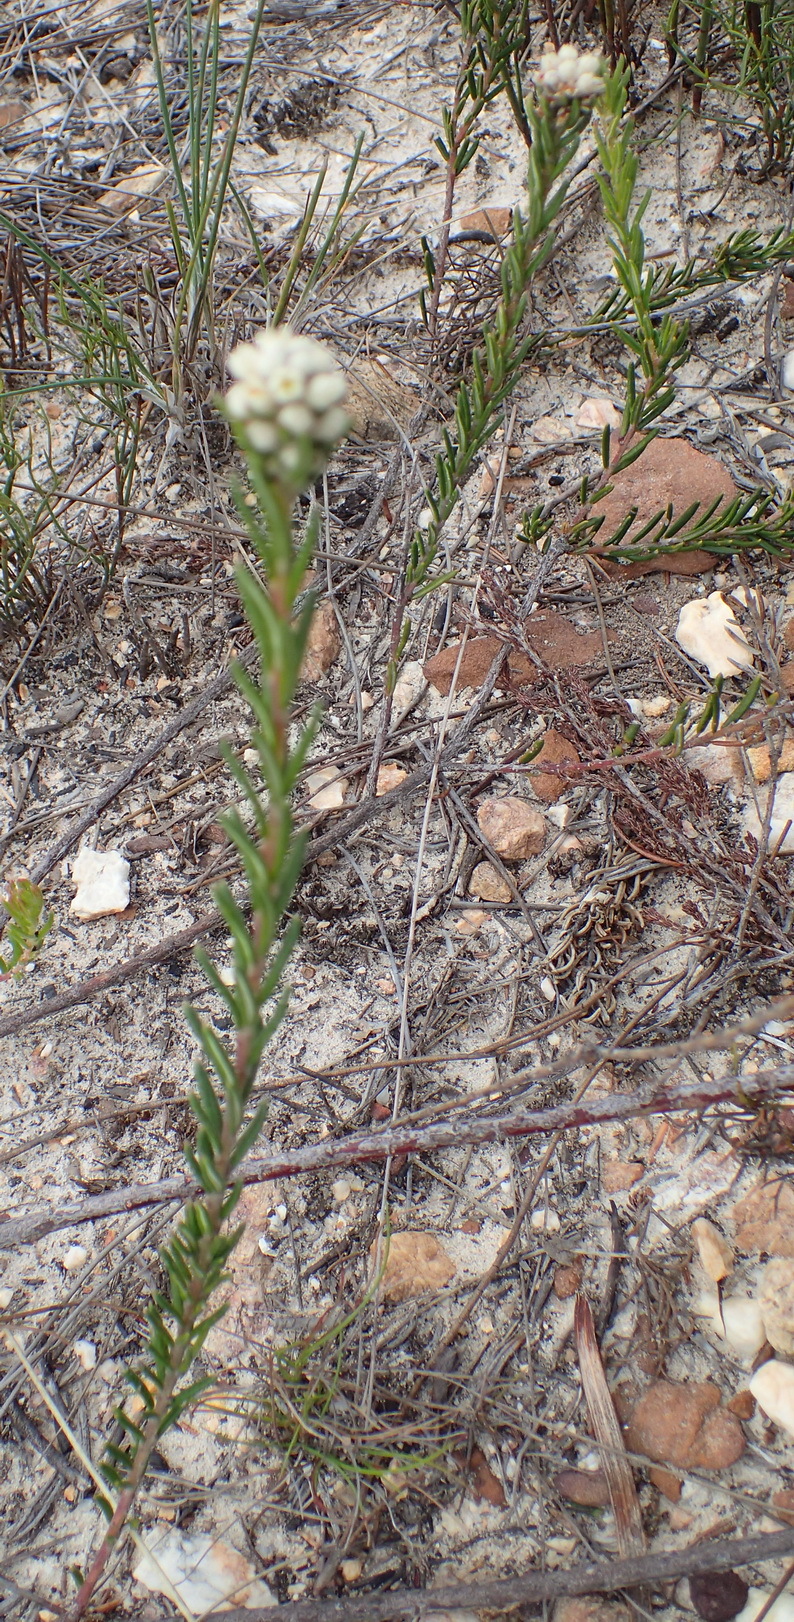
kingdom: Plantae
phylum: Tracheophyta
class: Magnoliopsida
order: Rosales
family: Rhamnaceae
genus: Phylica
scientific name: Phylica imberbis
